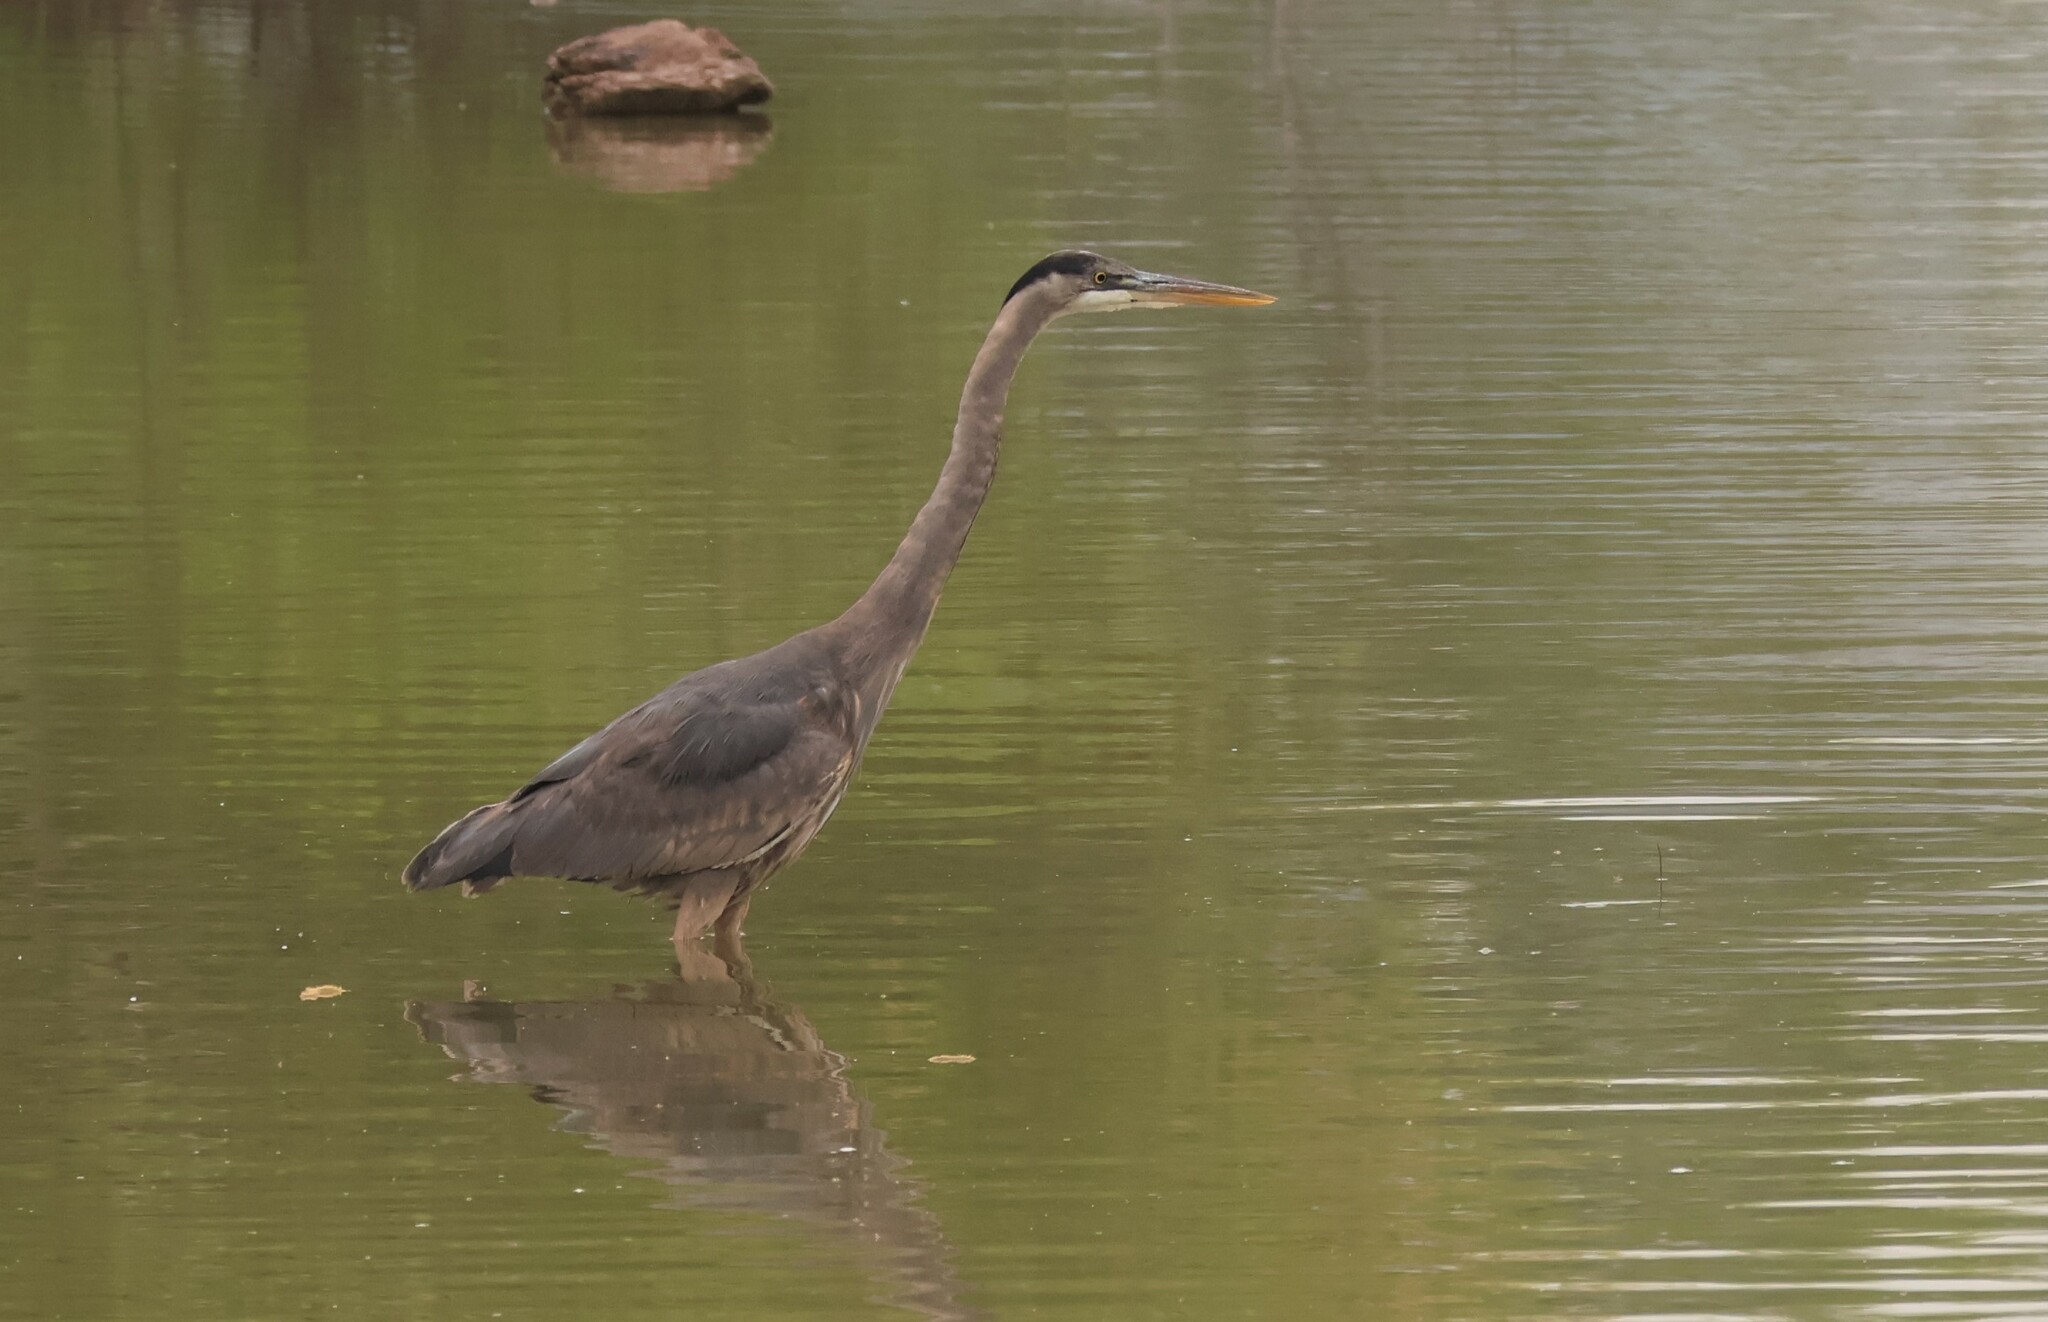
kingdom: Animalia
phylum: Chordata
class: Aves
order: Pelecaniformes
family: Ardeidae
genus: Ardea
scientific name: Ardea herodias
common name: Great blue heron
